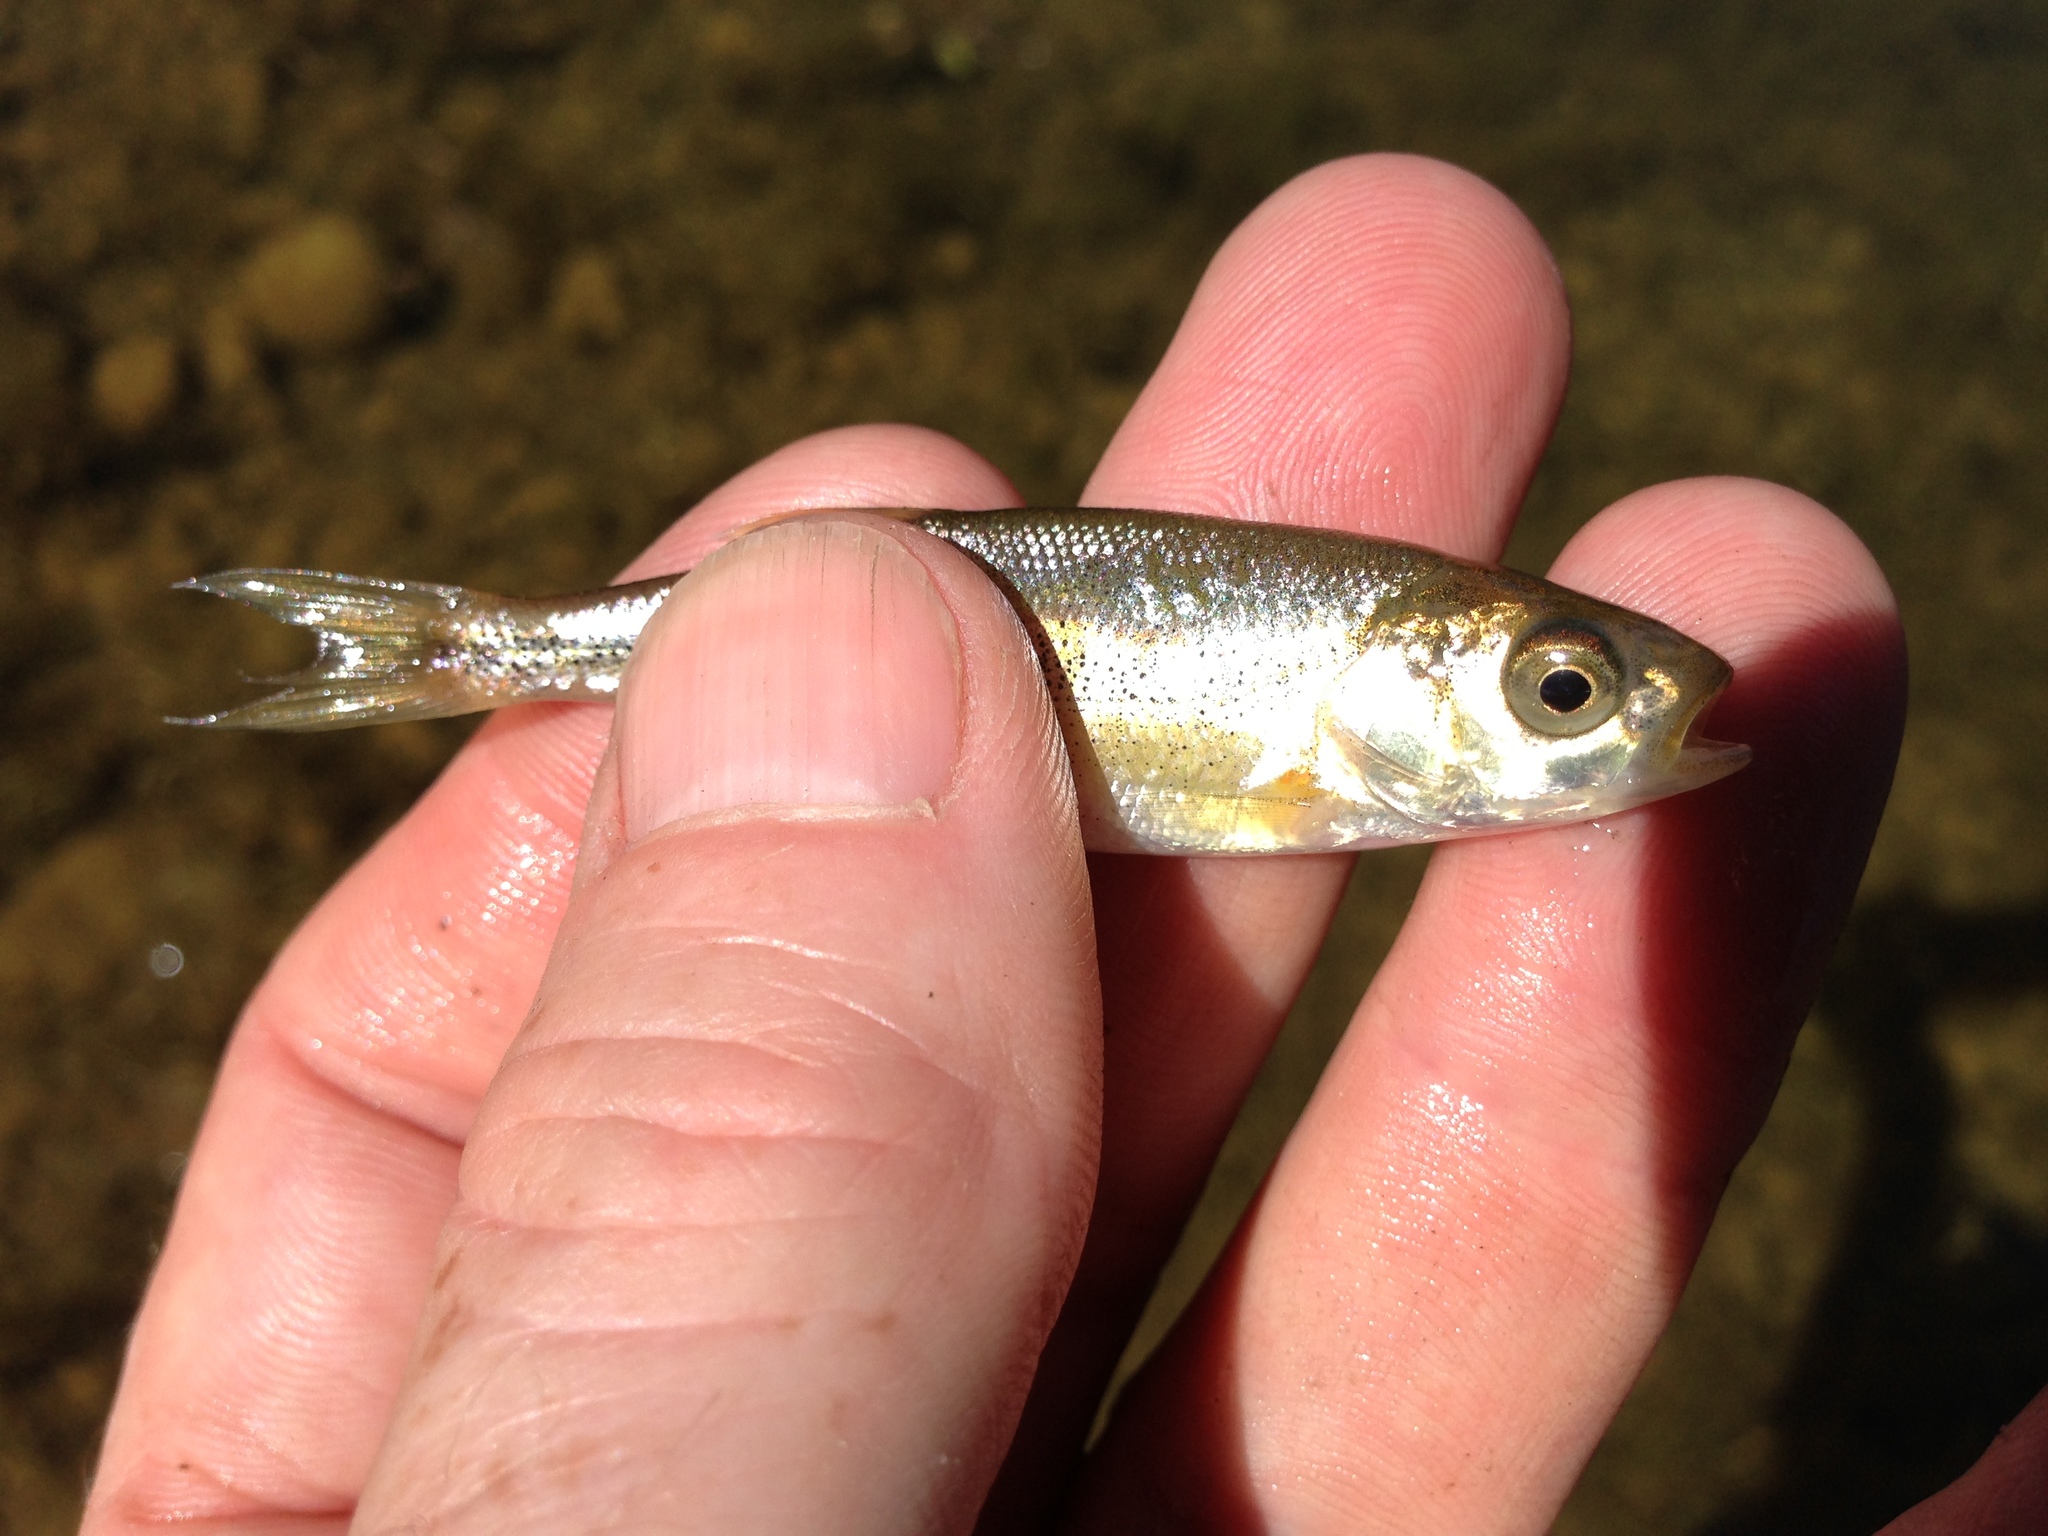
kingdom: Animalia
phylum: Chordata
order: Cypriniformes
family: Cyprinidae
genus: Richardsonius
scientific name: Richardsonius balteatus
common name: Redside shiner
